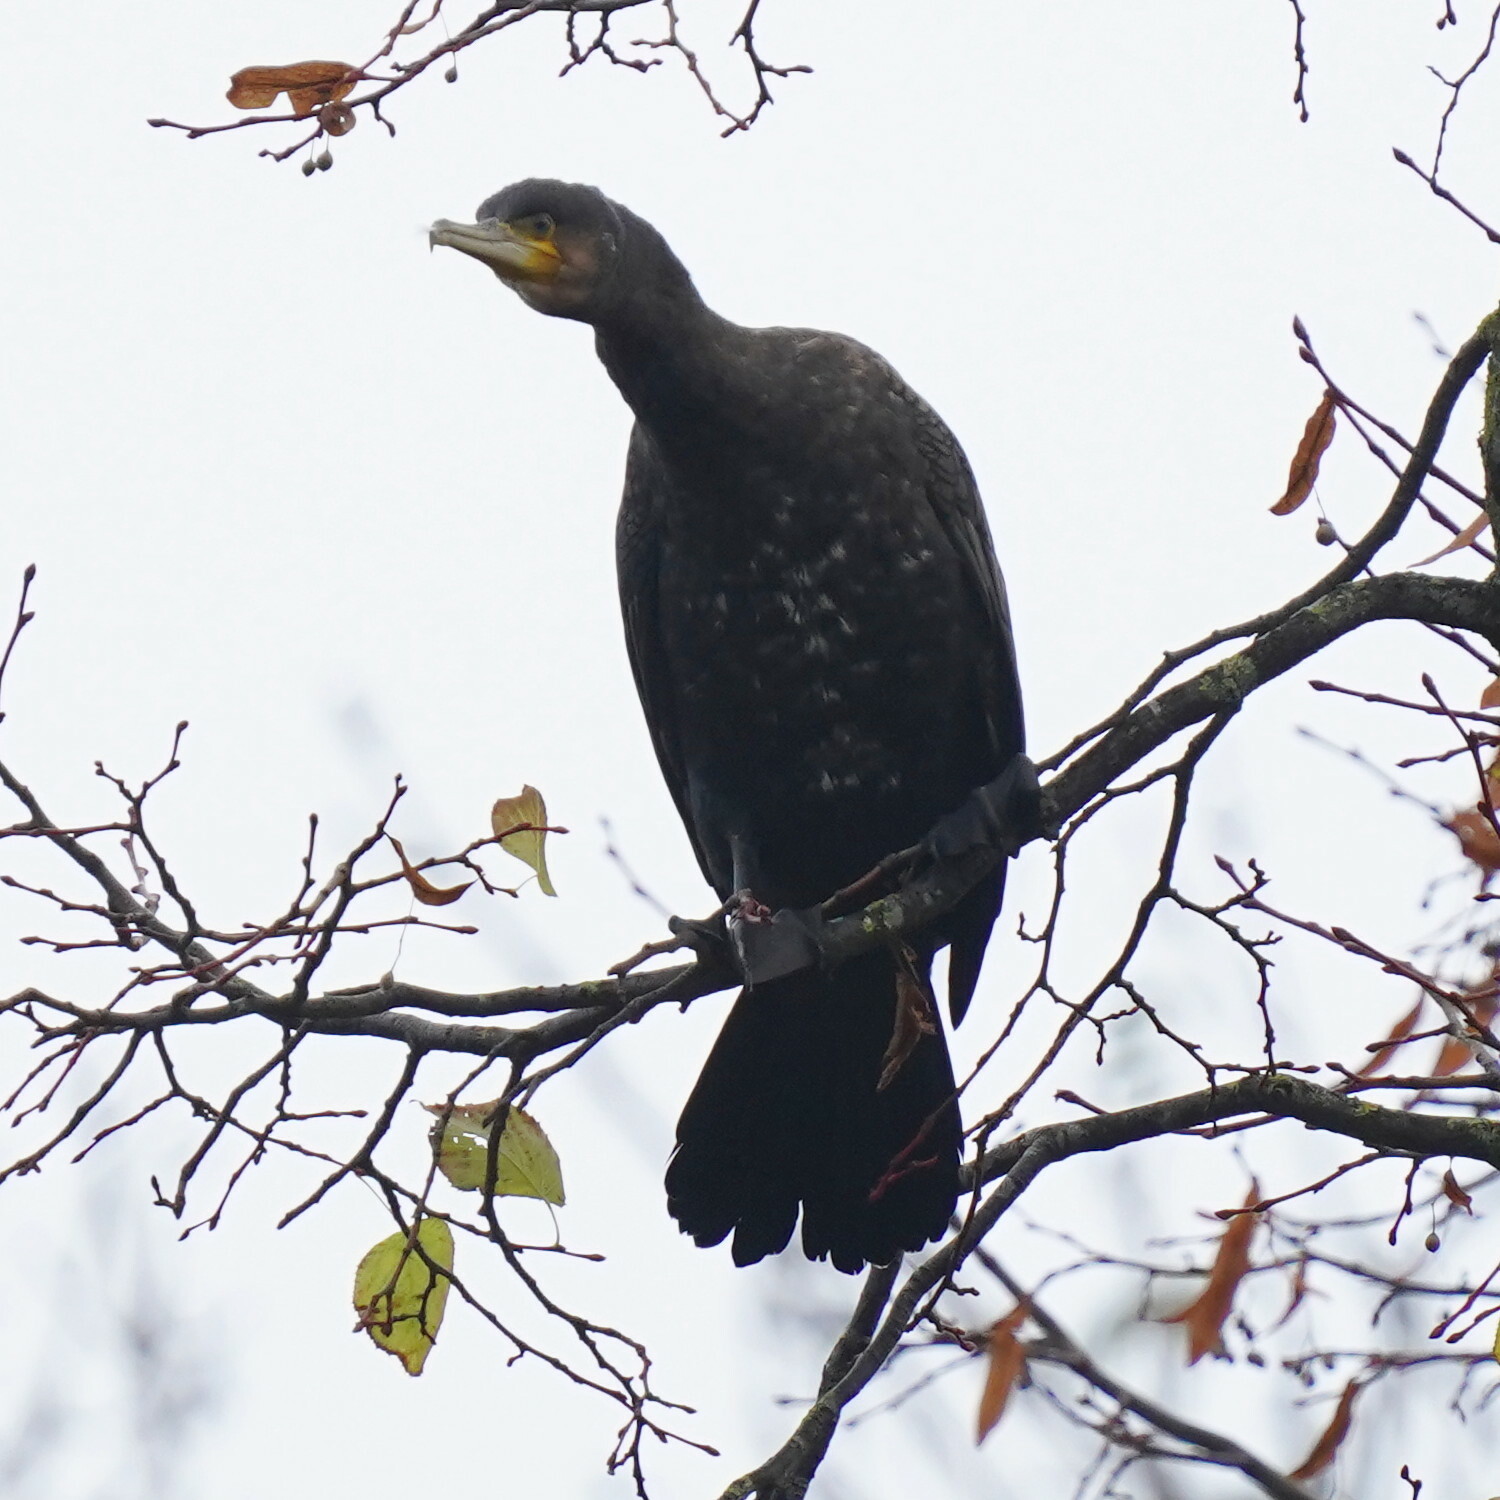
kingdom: Animalia
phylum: Chordata
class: Aves
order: Suliformes
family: Phalacrocoracidae
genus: Phalacrocorax
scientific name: Phalacrocorax carbo
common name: Great cormorant
